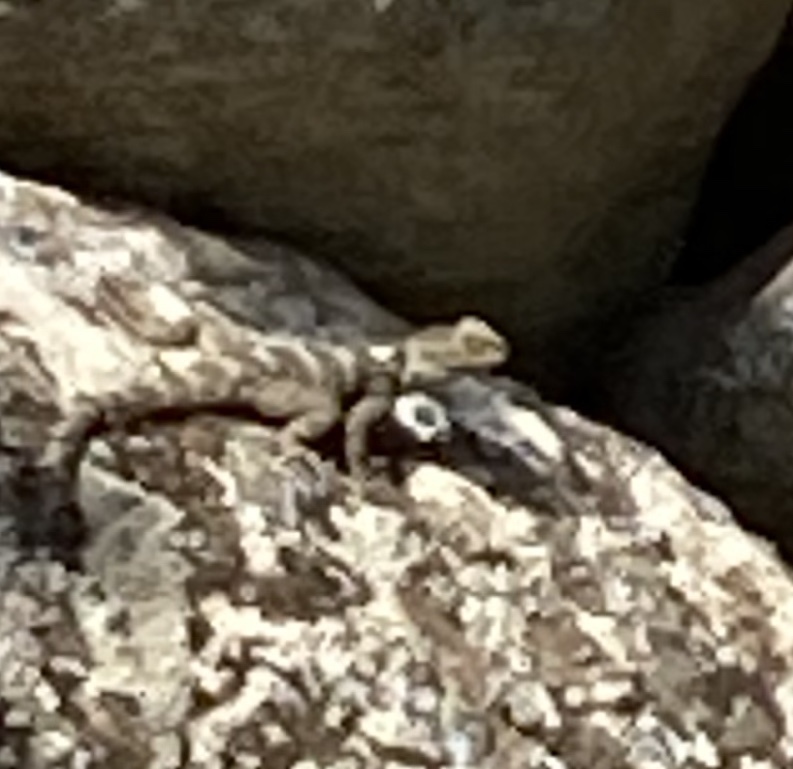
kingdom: Animalia
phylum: Chordata
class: Squamata
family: Agamidae
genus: Stellagama
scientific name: Stellagama stellio
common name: Starred agama
